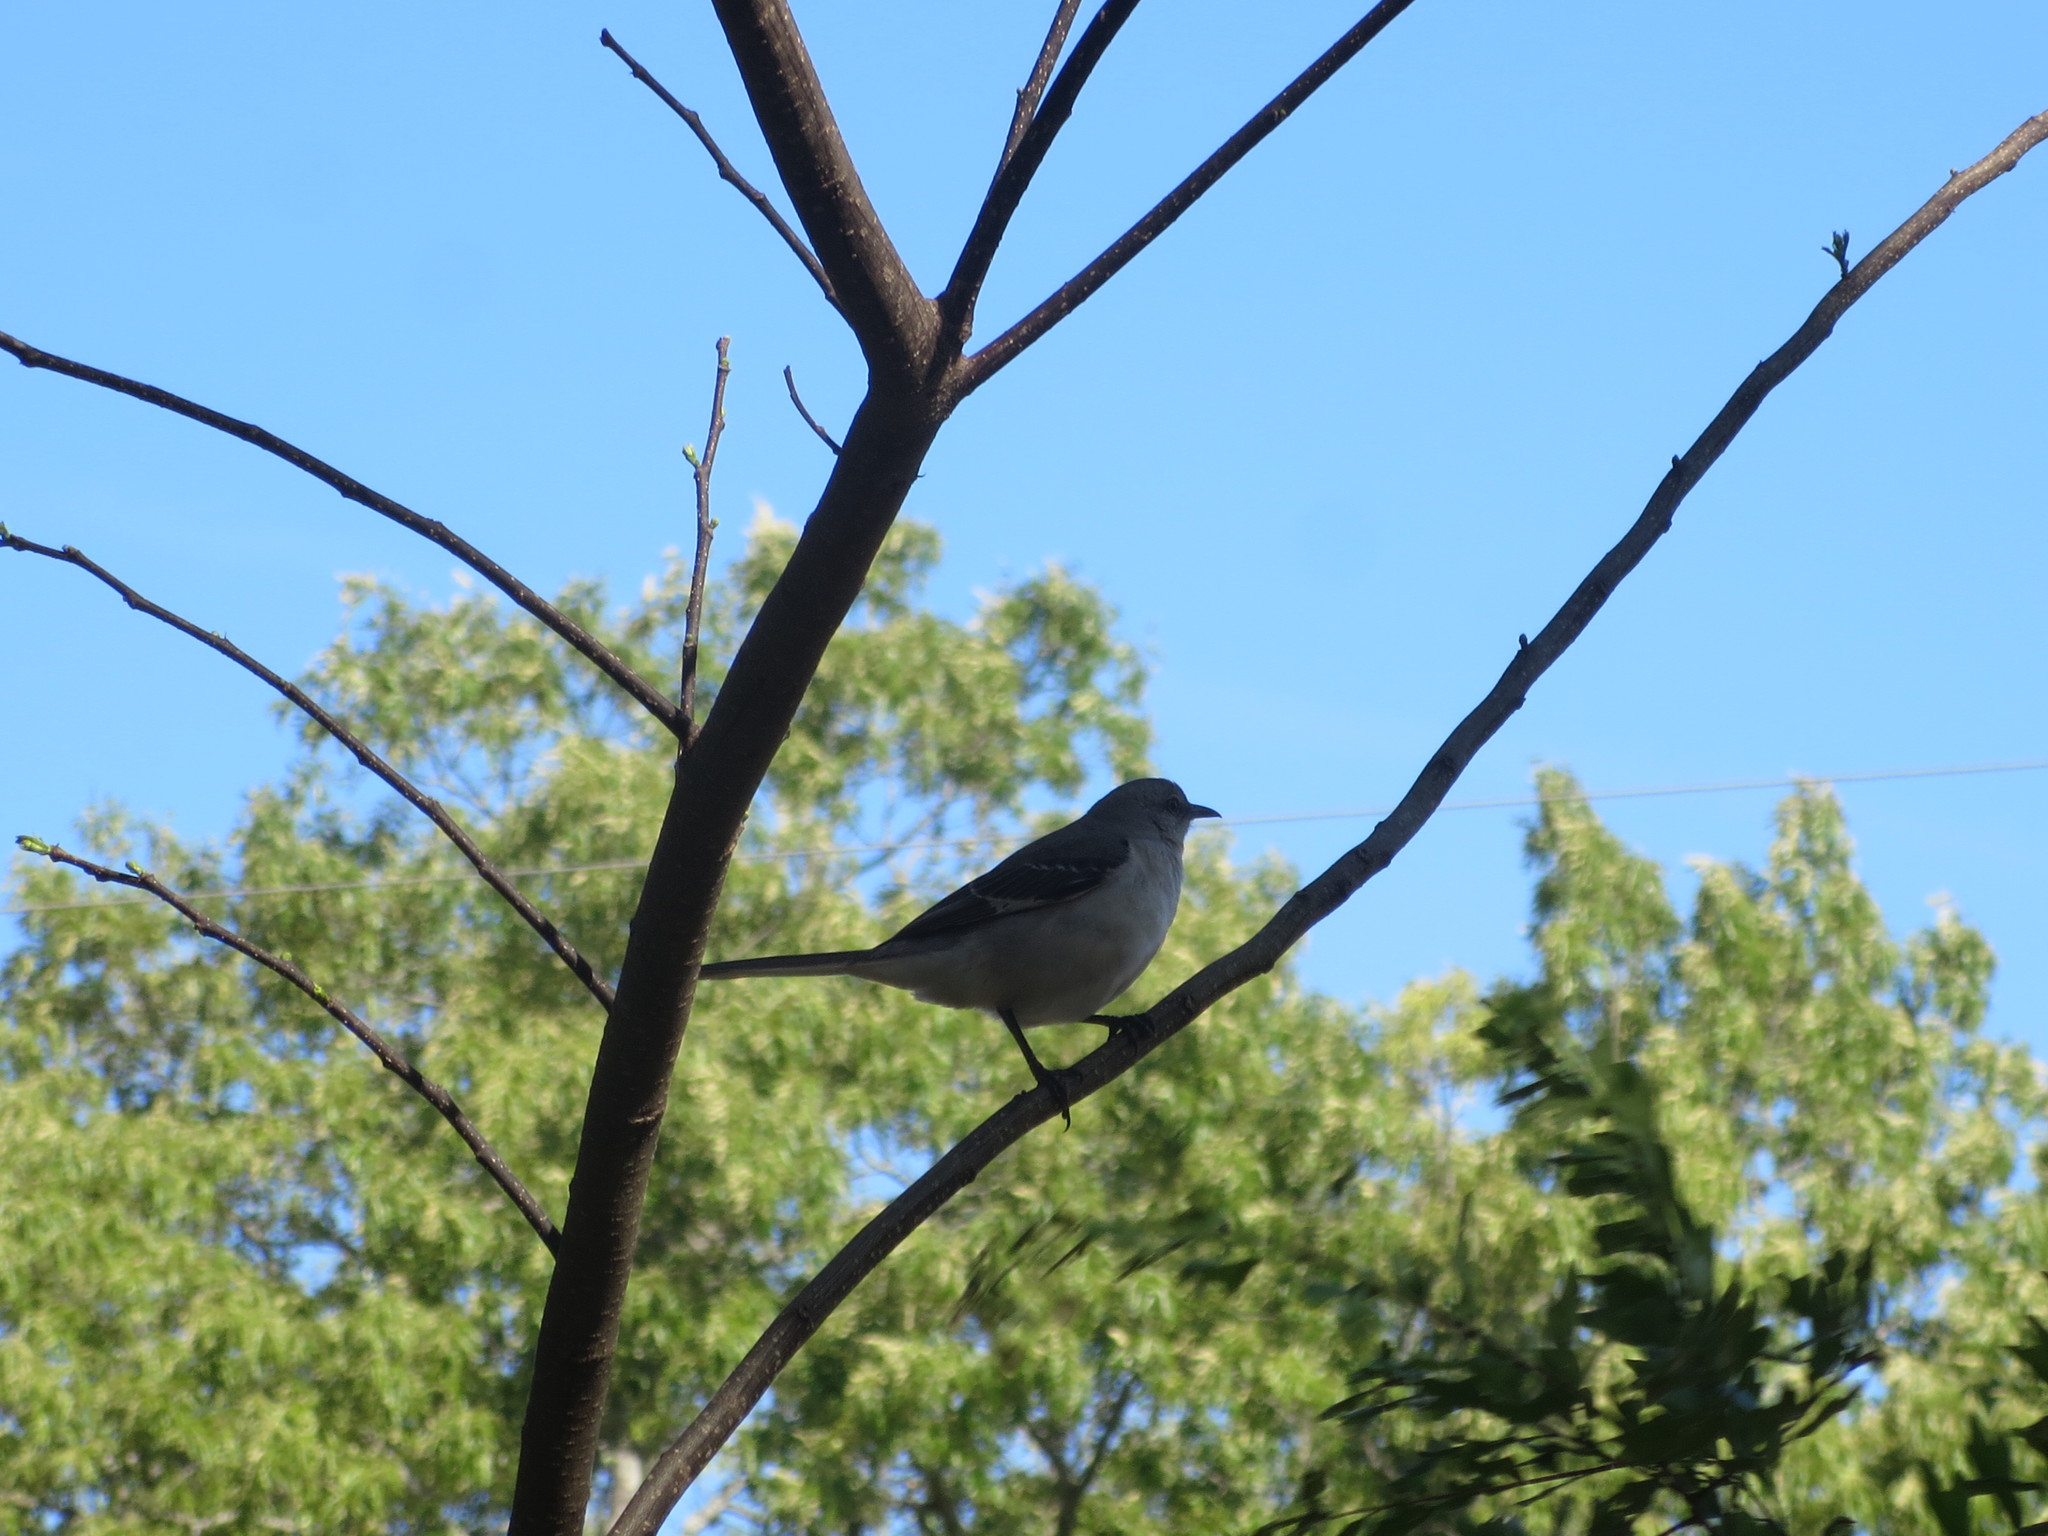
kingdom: Animalia
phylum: Chordata
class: Aves
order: Passeriformes
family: Mimidae
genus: Mimus
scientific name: Mimus polyglottos
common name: Northern mockingbird
